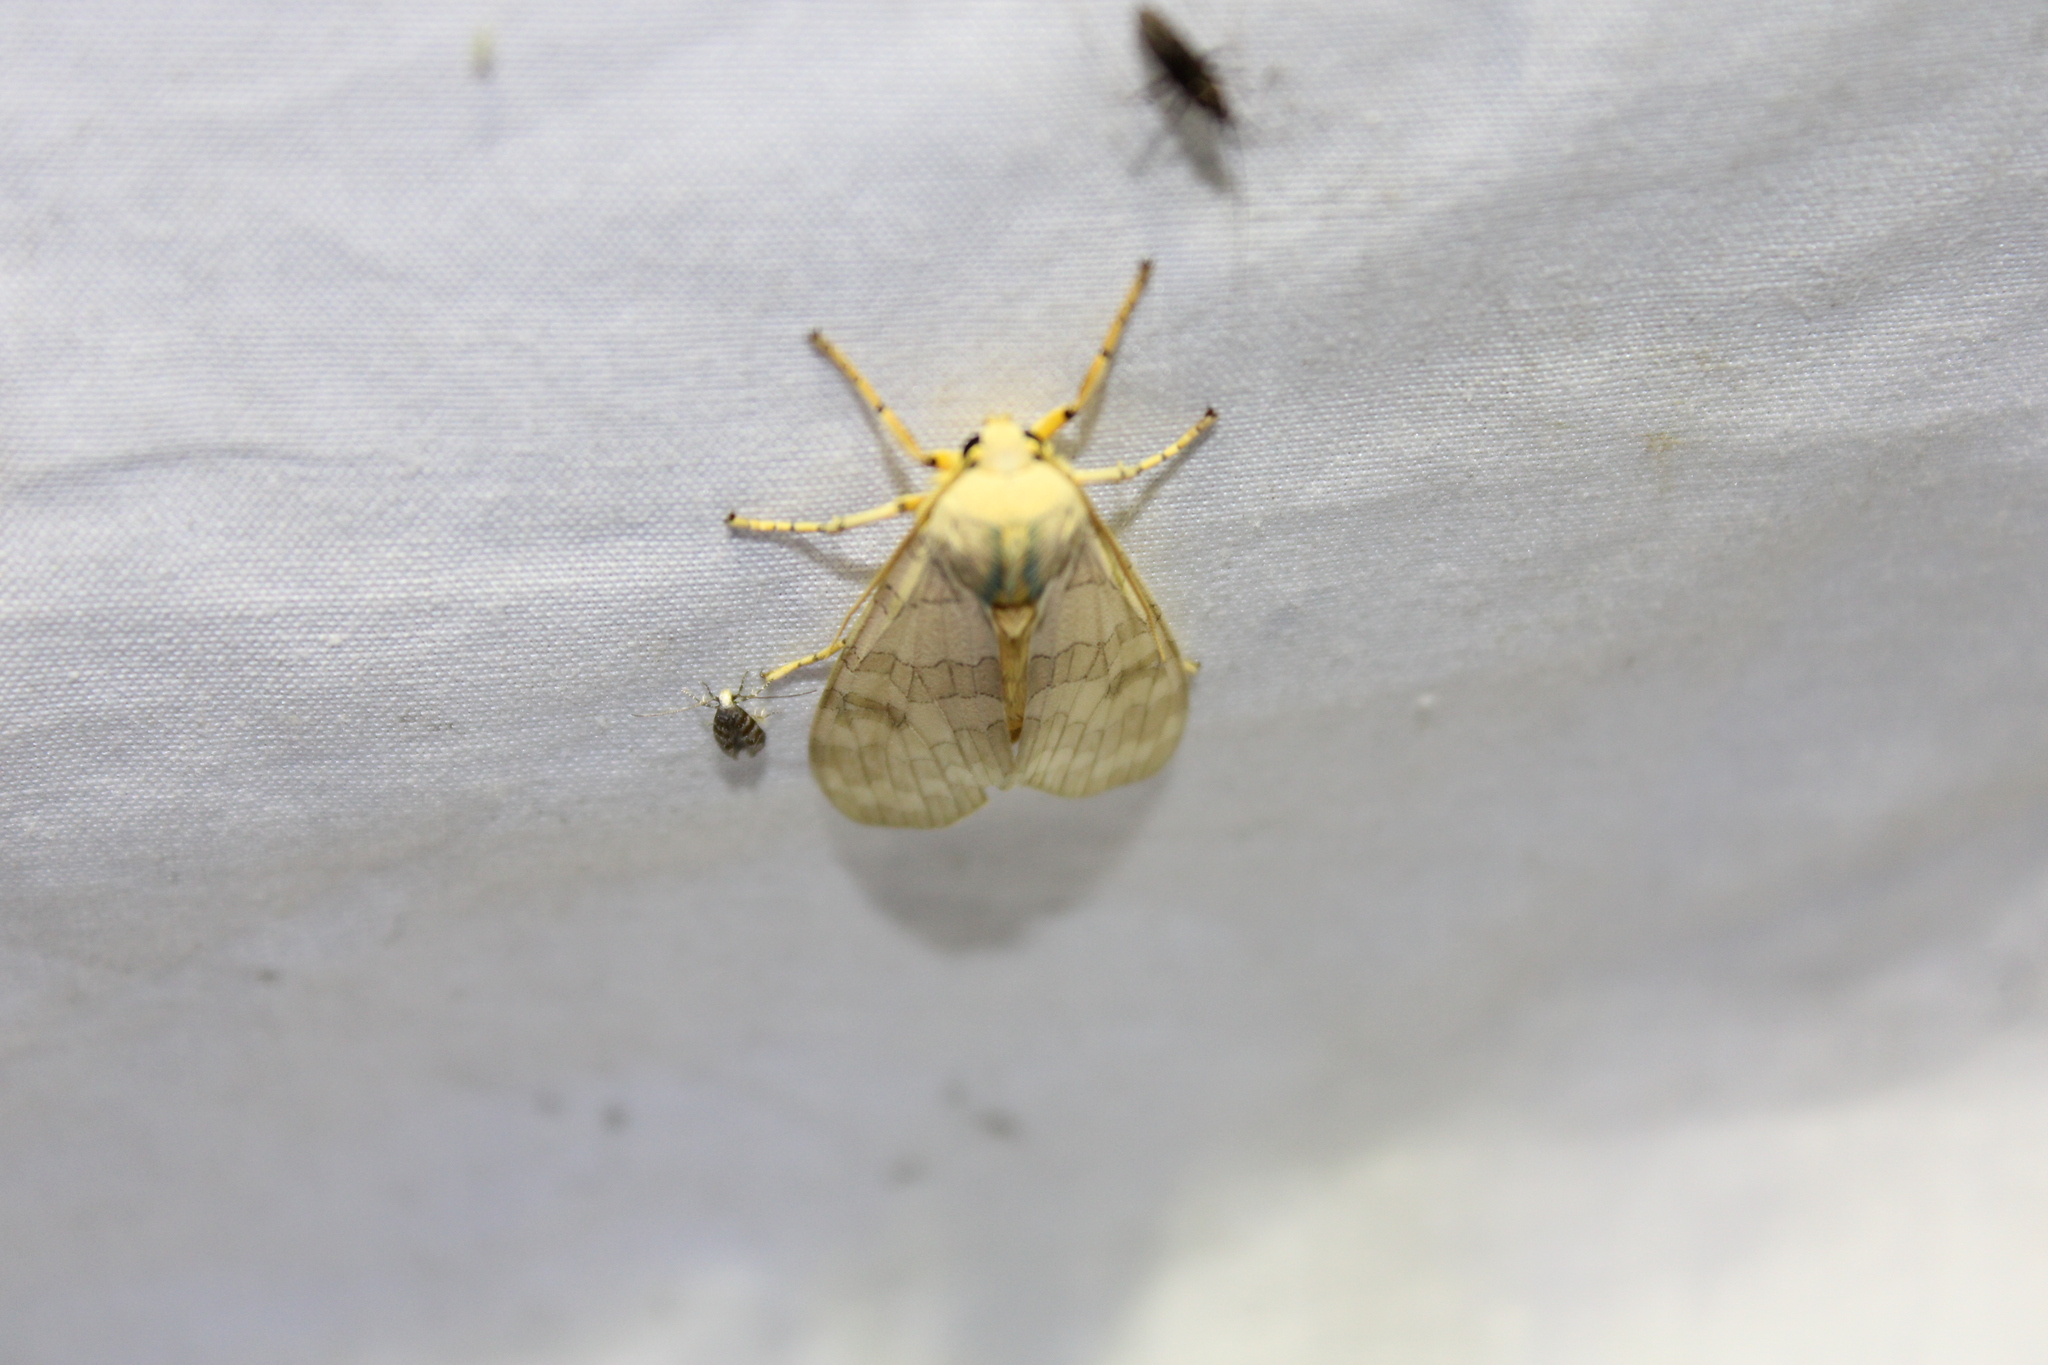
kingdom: Animalia
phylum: Arthropoda
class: Insecta
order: Lepidoptera
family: Erebidae
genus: Halysidota
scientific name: Halysidota
